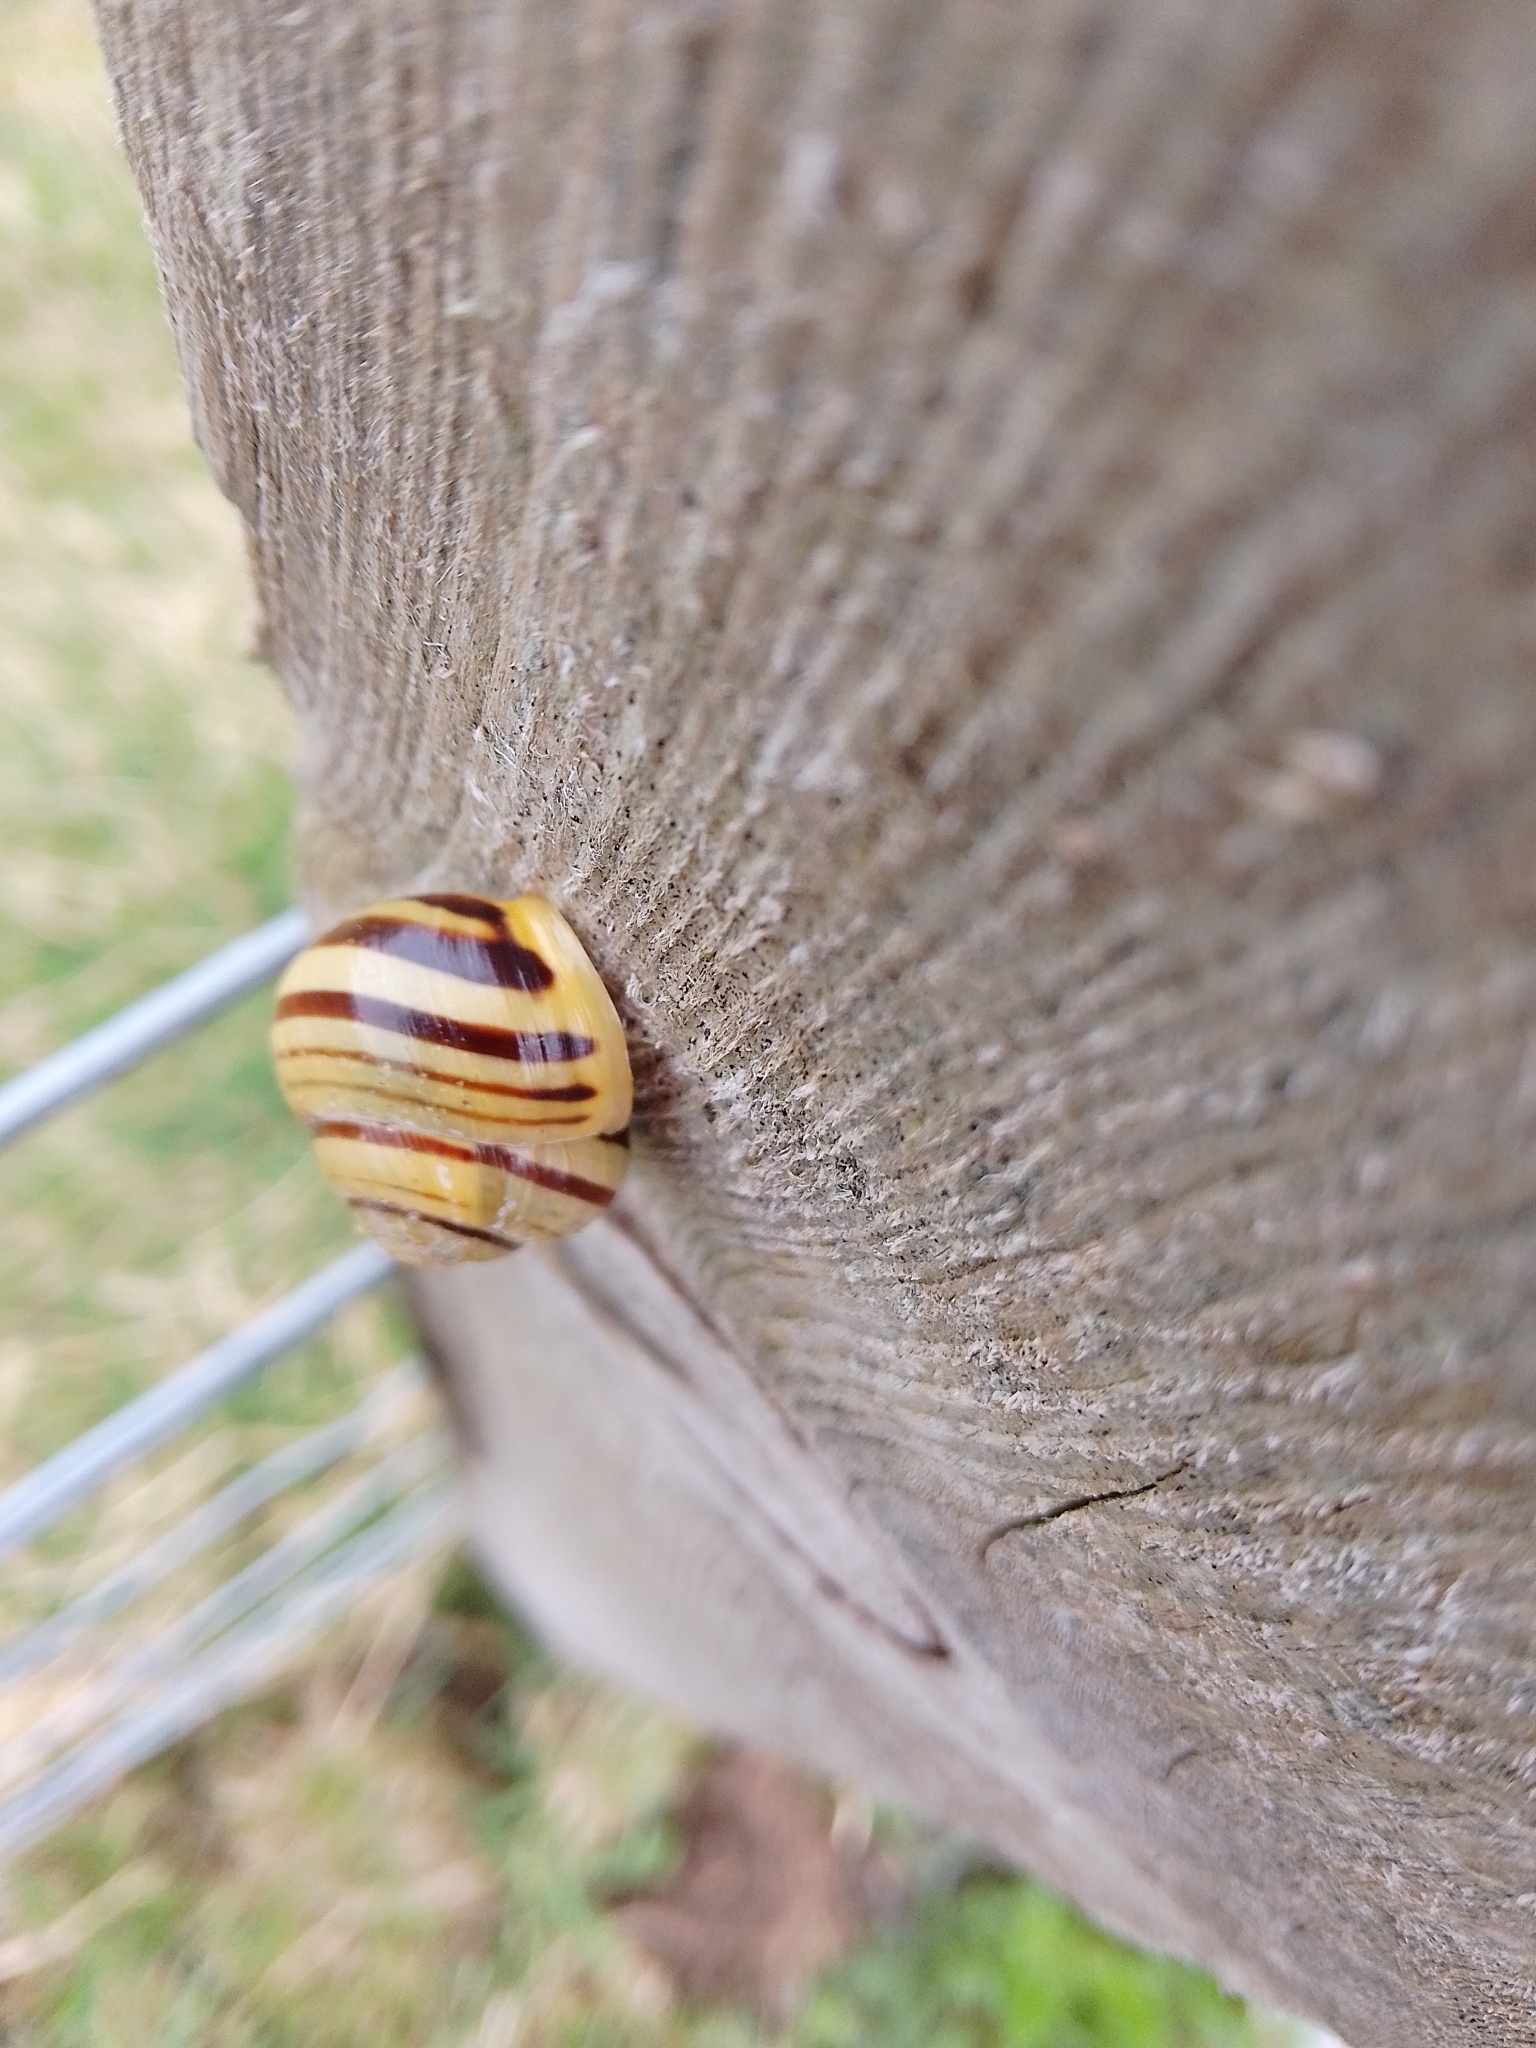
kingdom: Animalia
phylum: Mollusca
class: Gastropoda
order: Stylommatophora
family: Helicidae
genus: Cepaea
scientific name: Cepaea hortensis
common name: White-lip gardensnail
